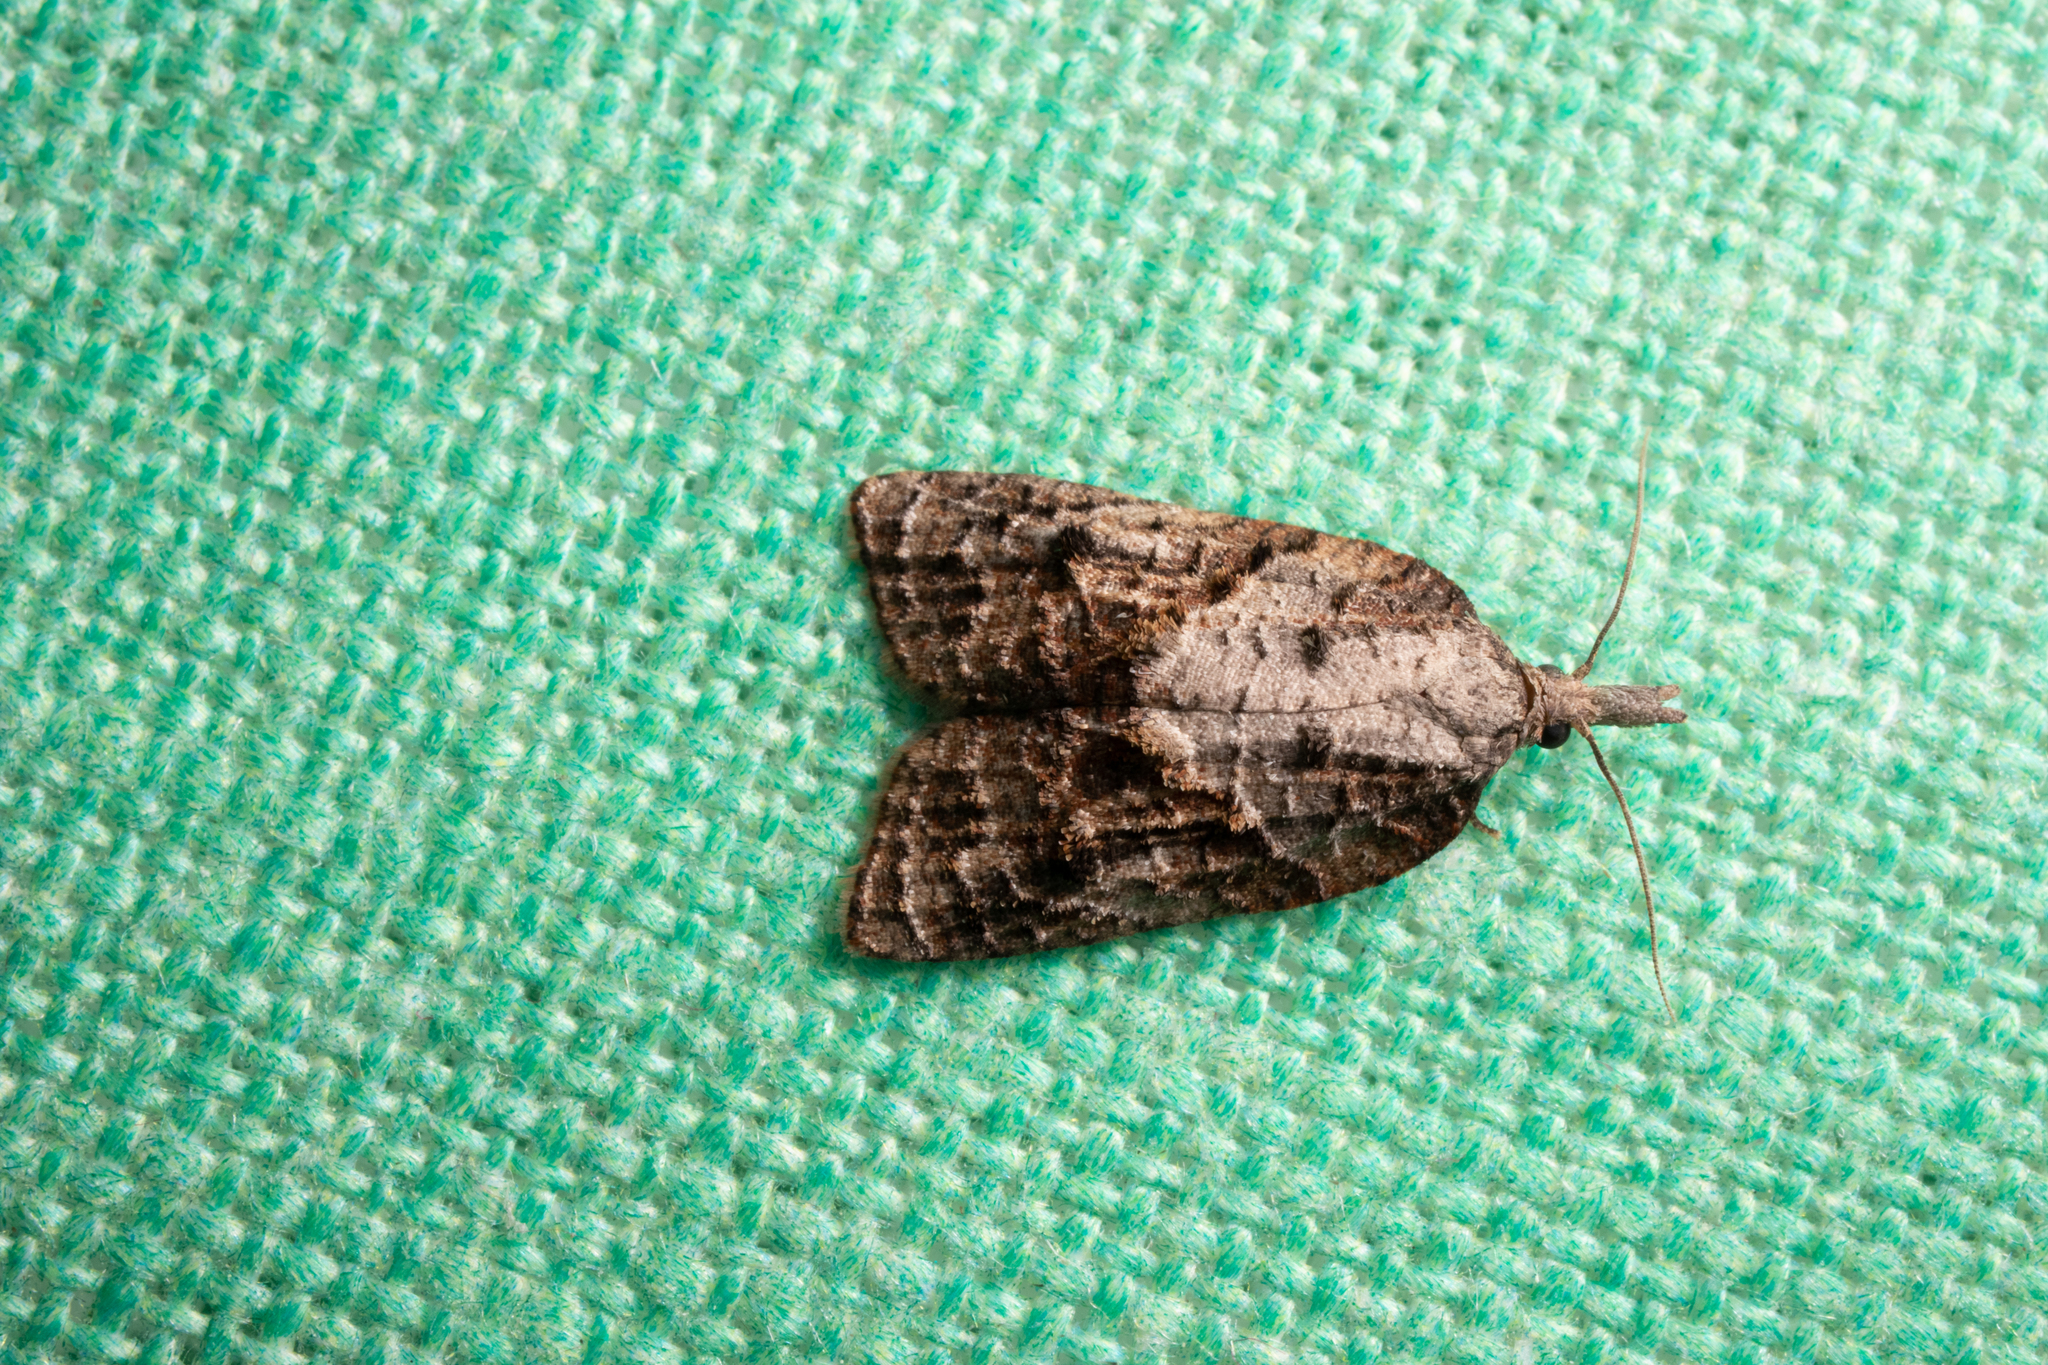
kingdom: Animalia
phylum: Arthropoda
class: Insecta
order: Lepidoptera
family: Tortricidae
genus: Platynota
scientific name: Platynota idaeusalis
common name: Tufted apple bud moth
